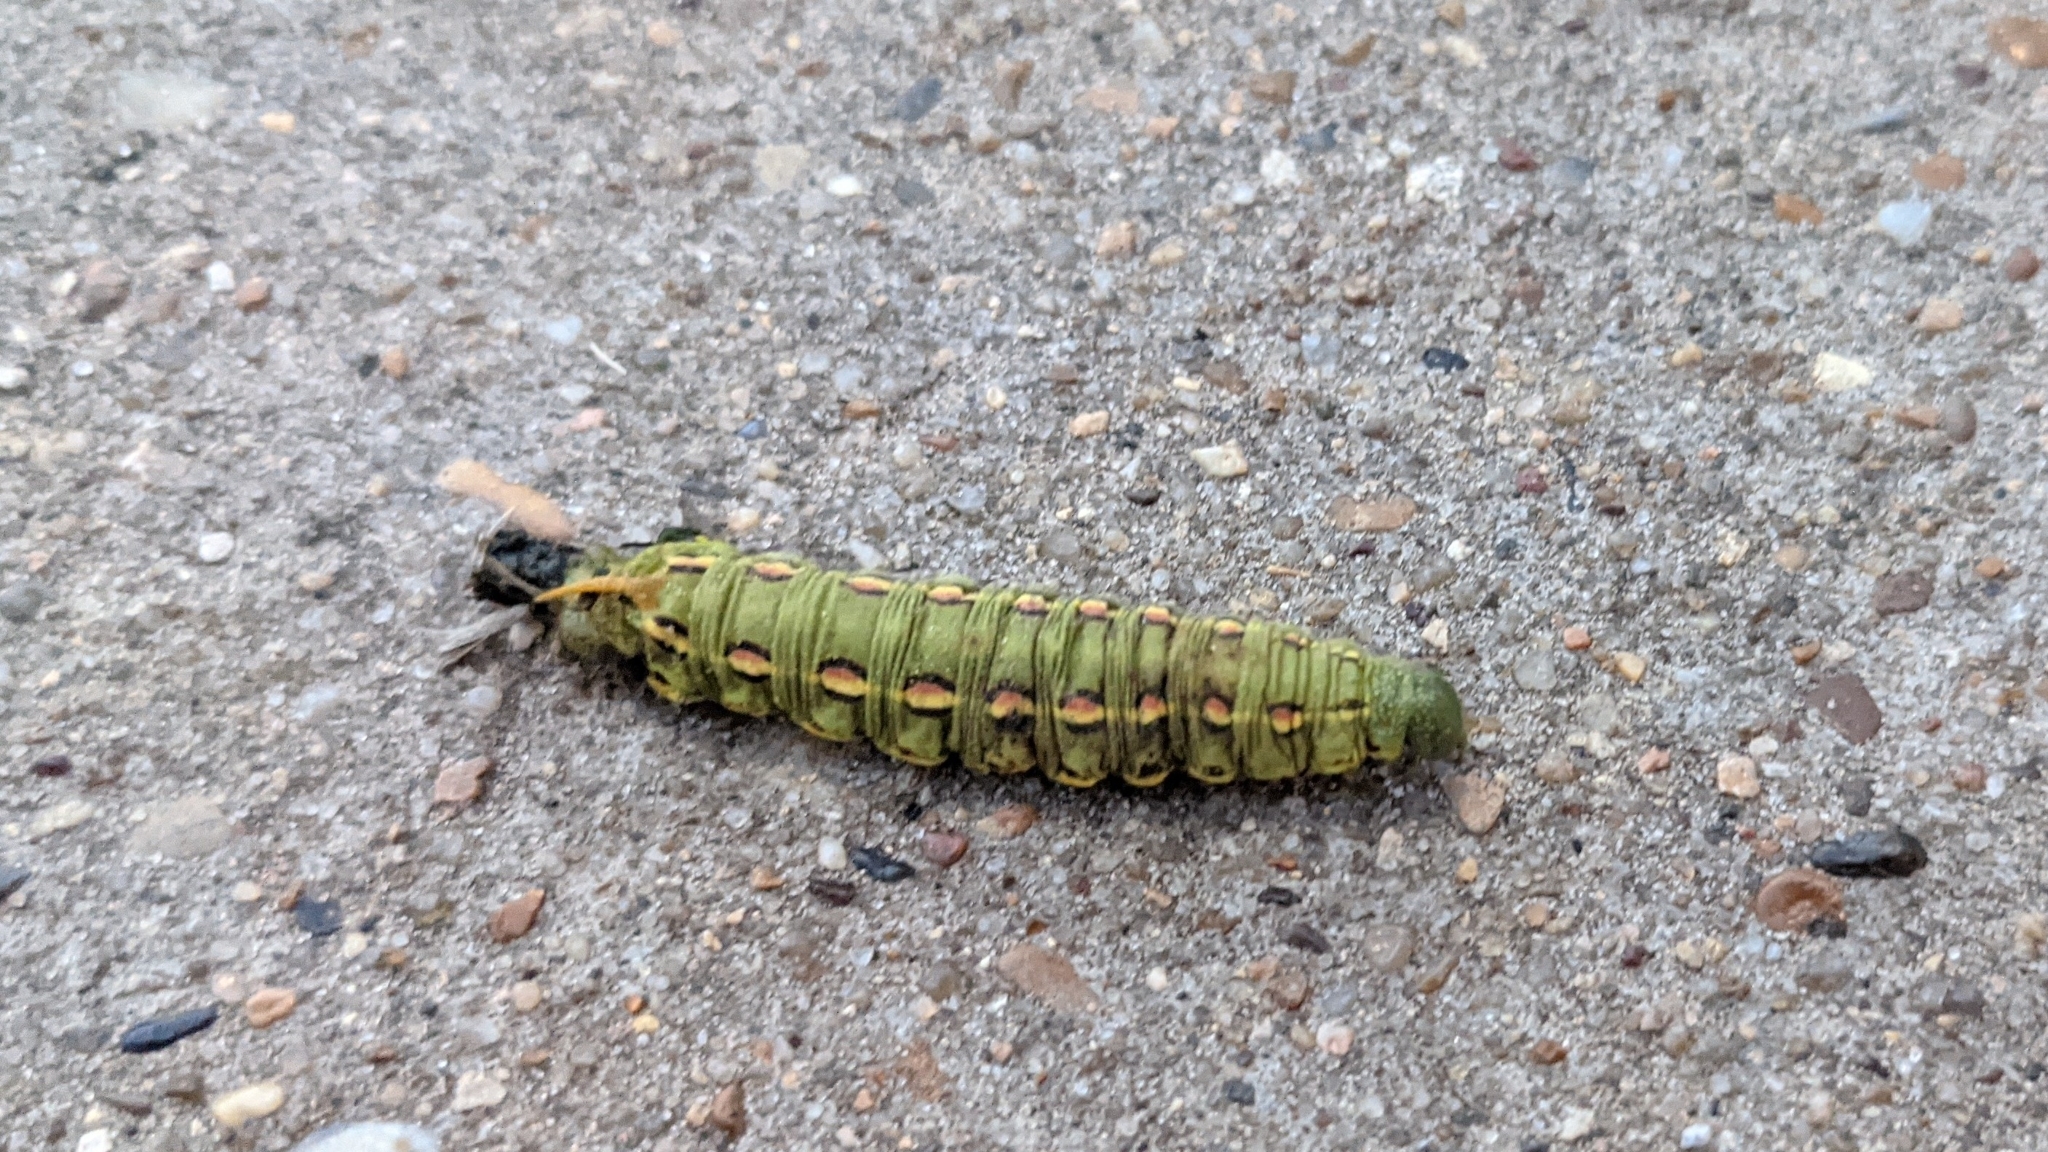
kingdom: Animalia
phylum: Arthropoda
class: Insecta
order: Lepidoptera
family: Sphingidae
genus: Hyles
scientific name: Hyles lineata
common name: White-lined sphinx
